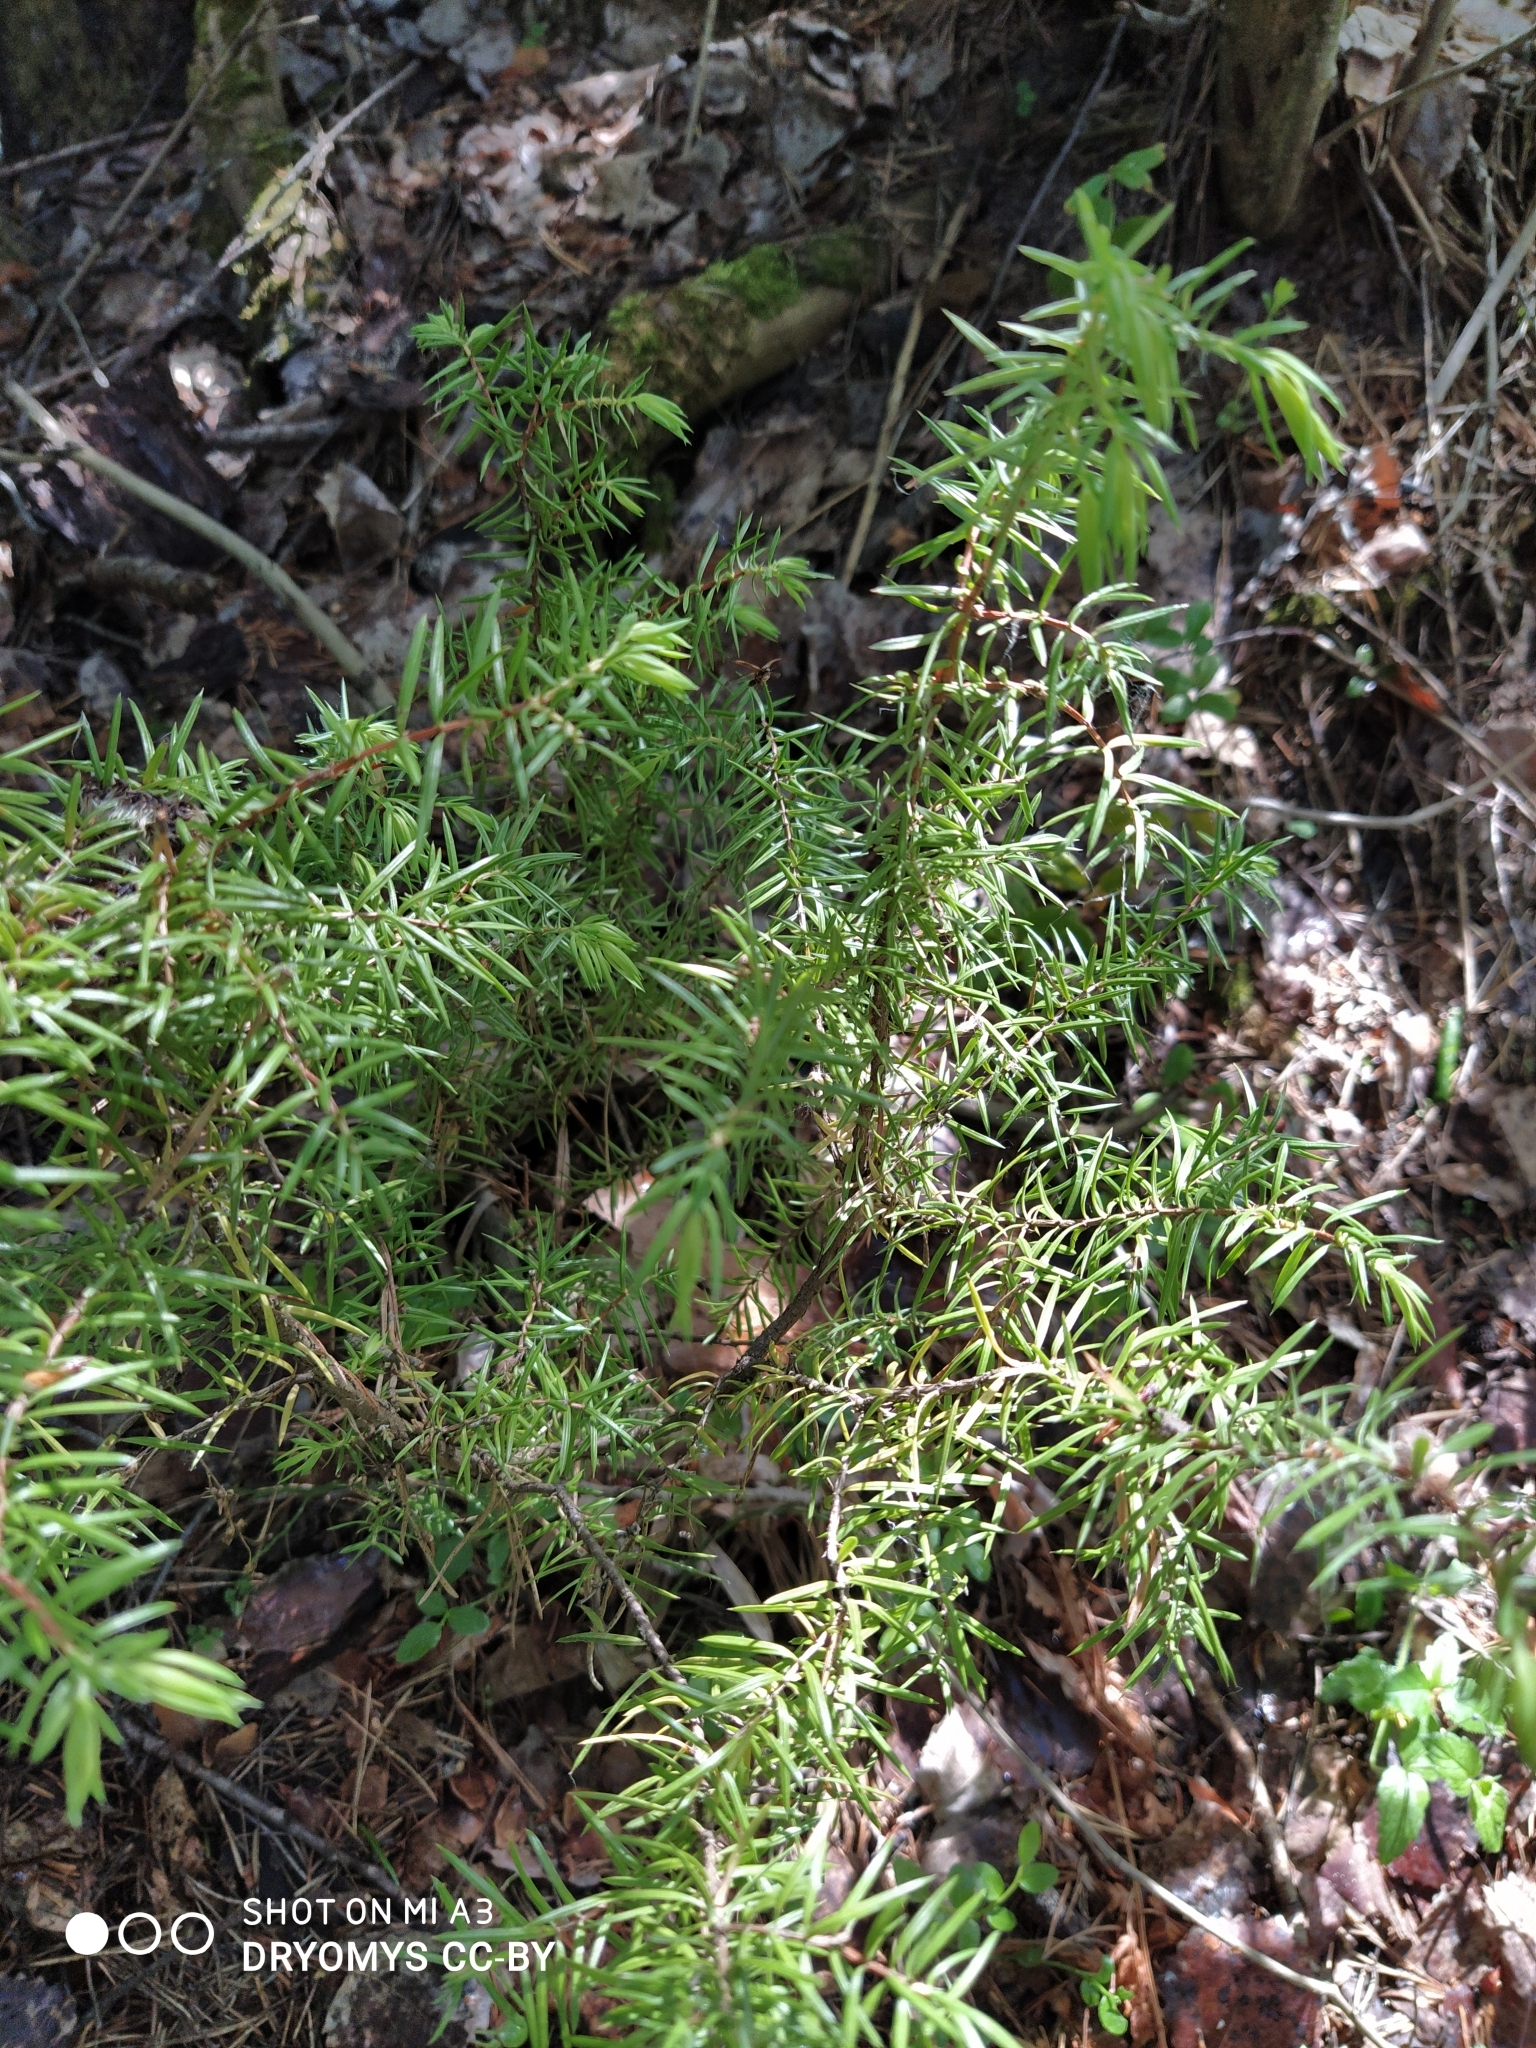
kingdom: Plantae
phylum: Tracheophyta
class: Pinopsida
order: Pinales
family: Cupressaceae
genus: Juniperus
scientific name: Juniperus communis
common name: Common juniper
